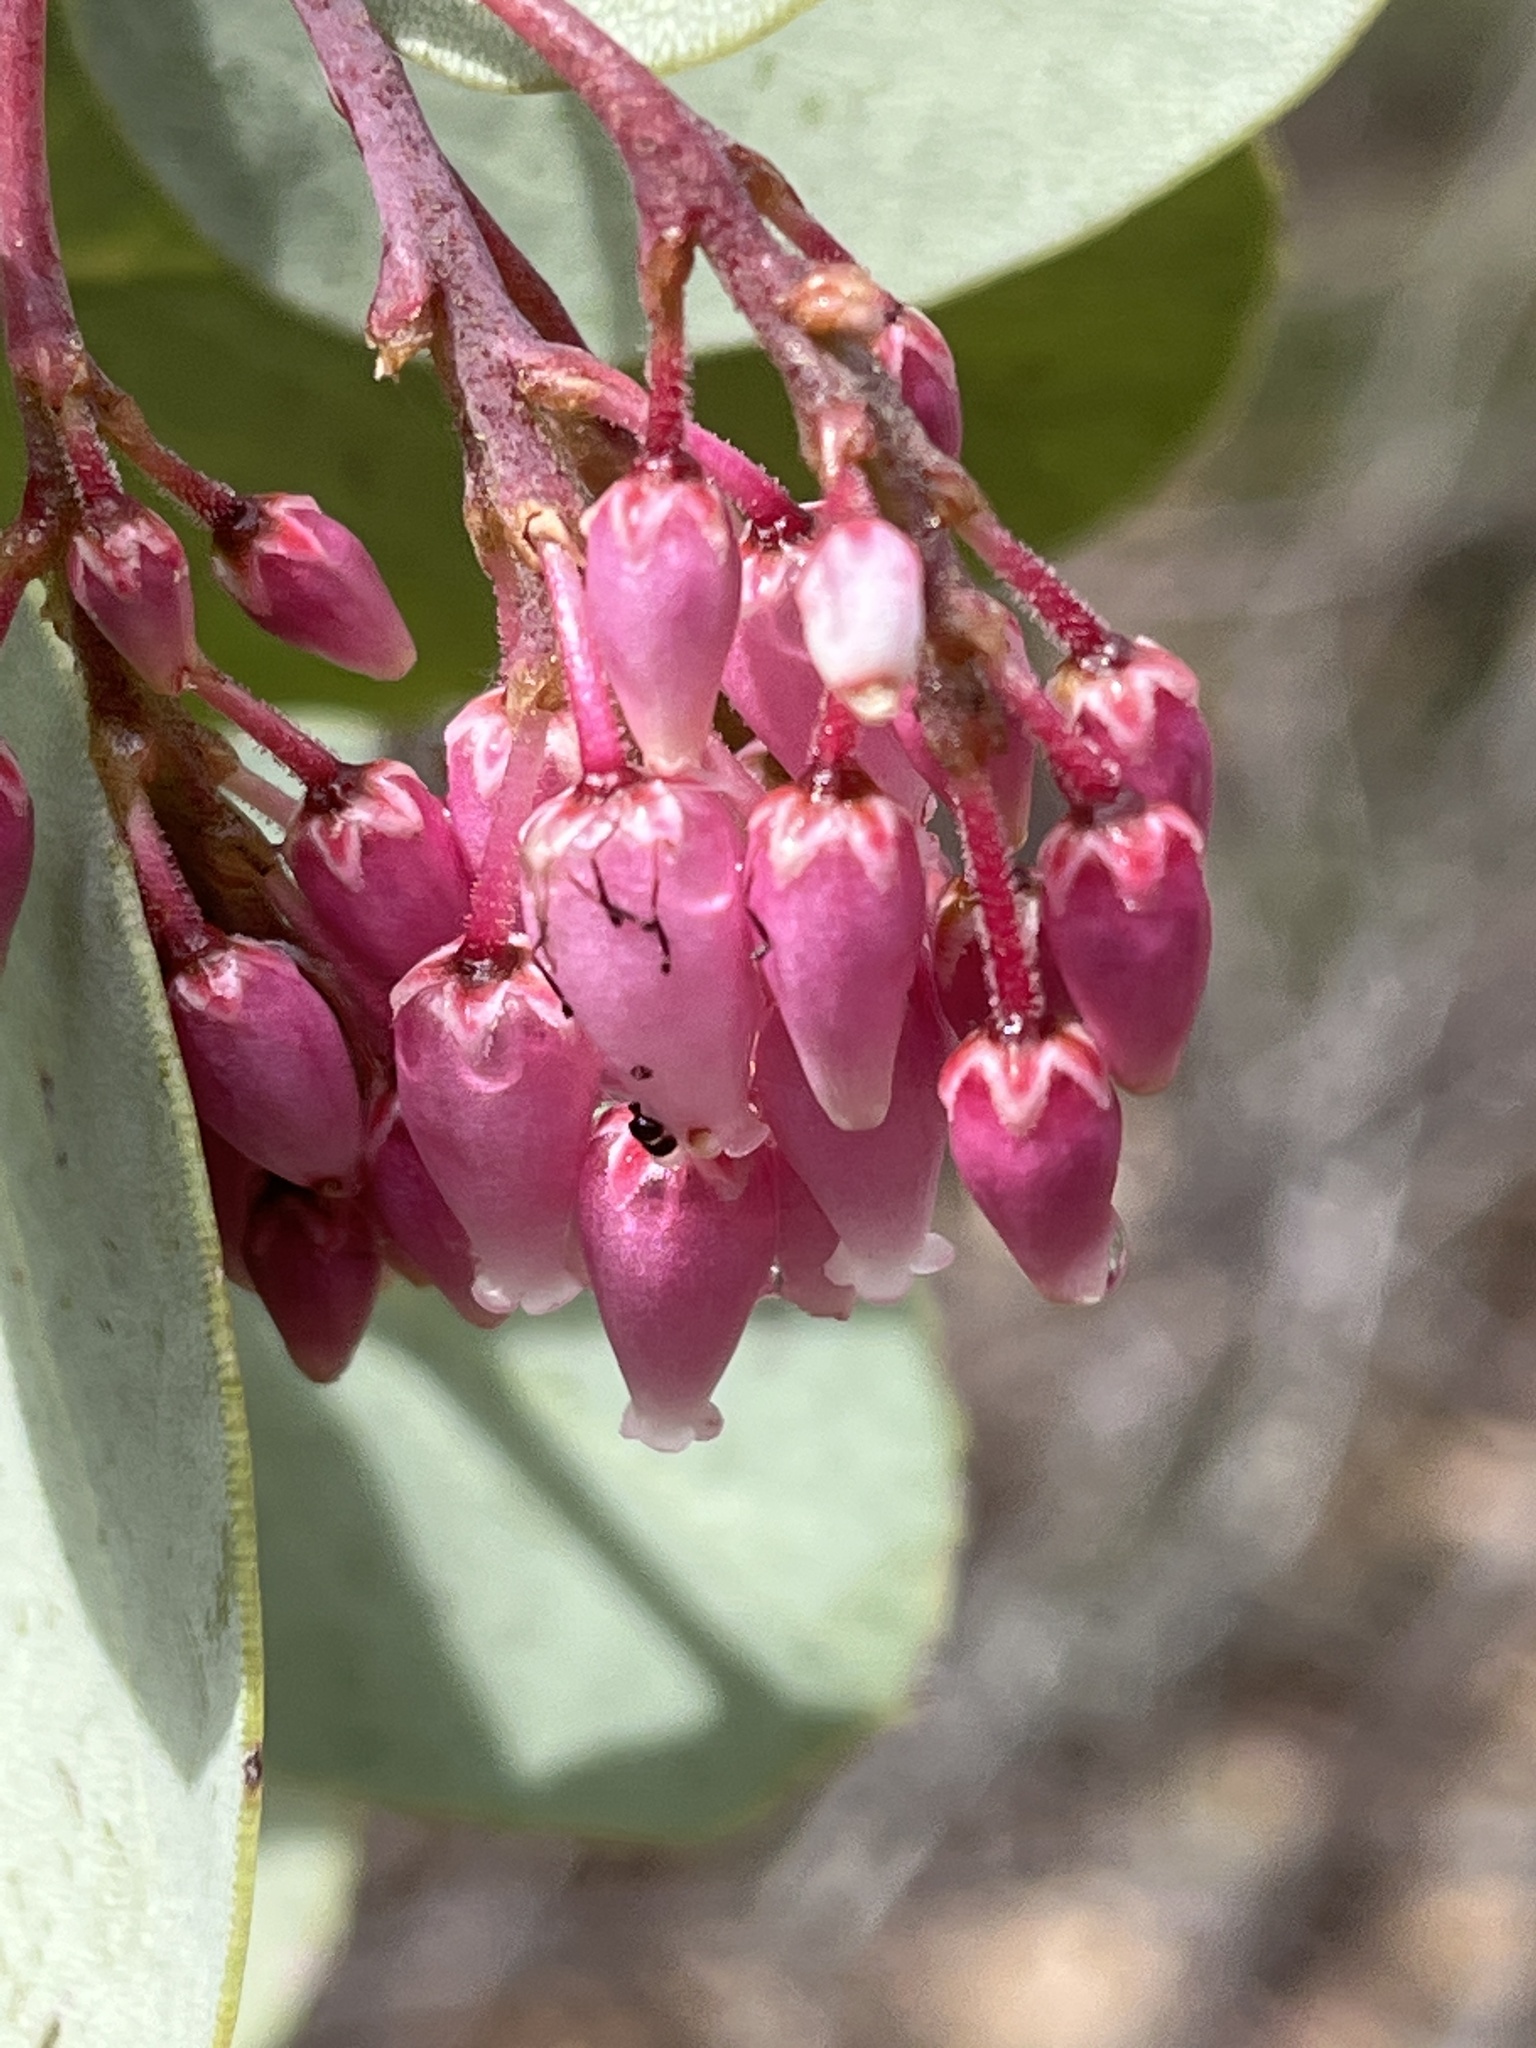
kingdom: Plantae
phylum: Tracheophyta
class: Magnoliopsida
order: Ericales
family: Ericaceae
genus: Arctostaphylos
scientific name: Arctostaphylos viscida
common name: White-leaf manzanita
